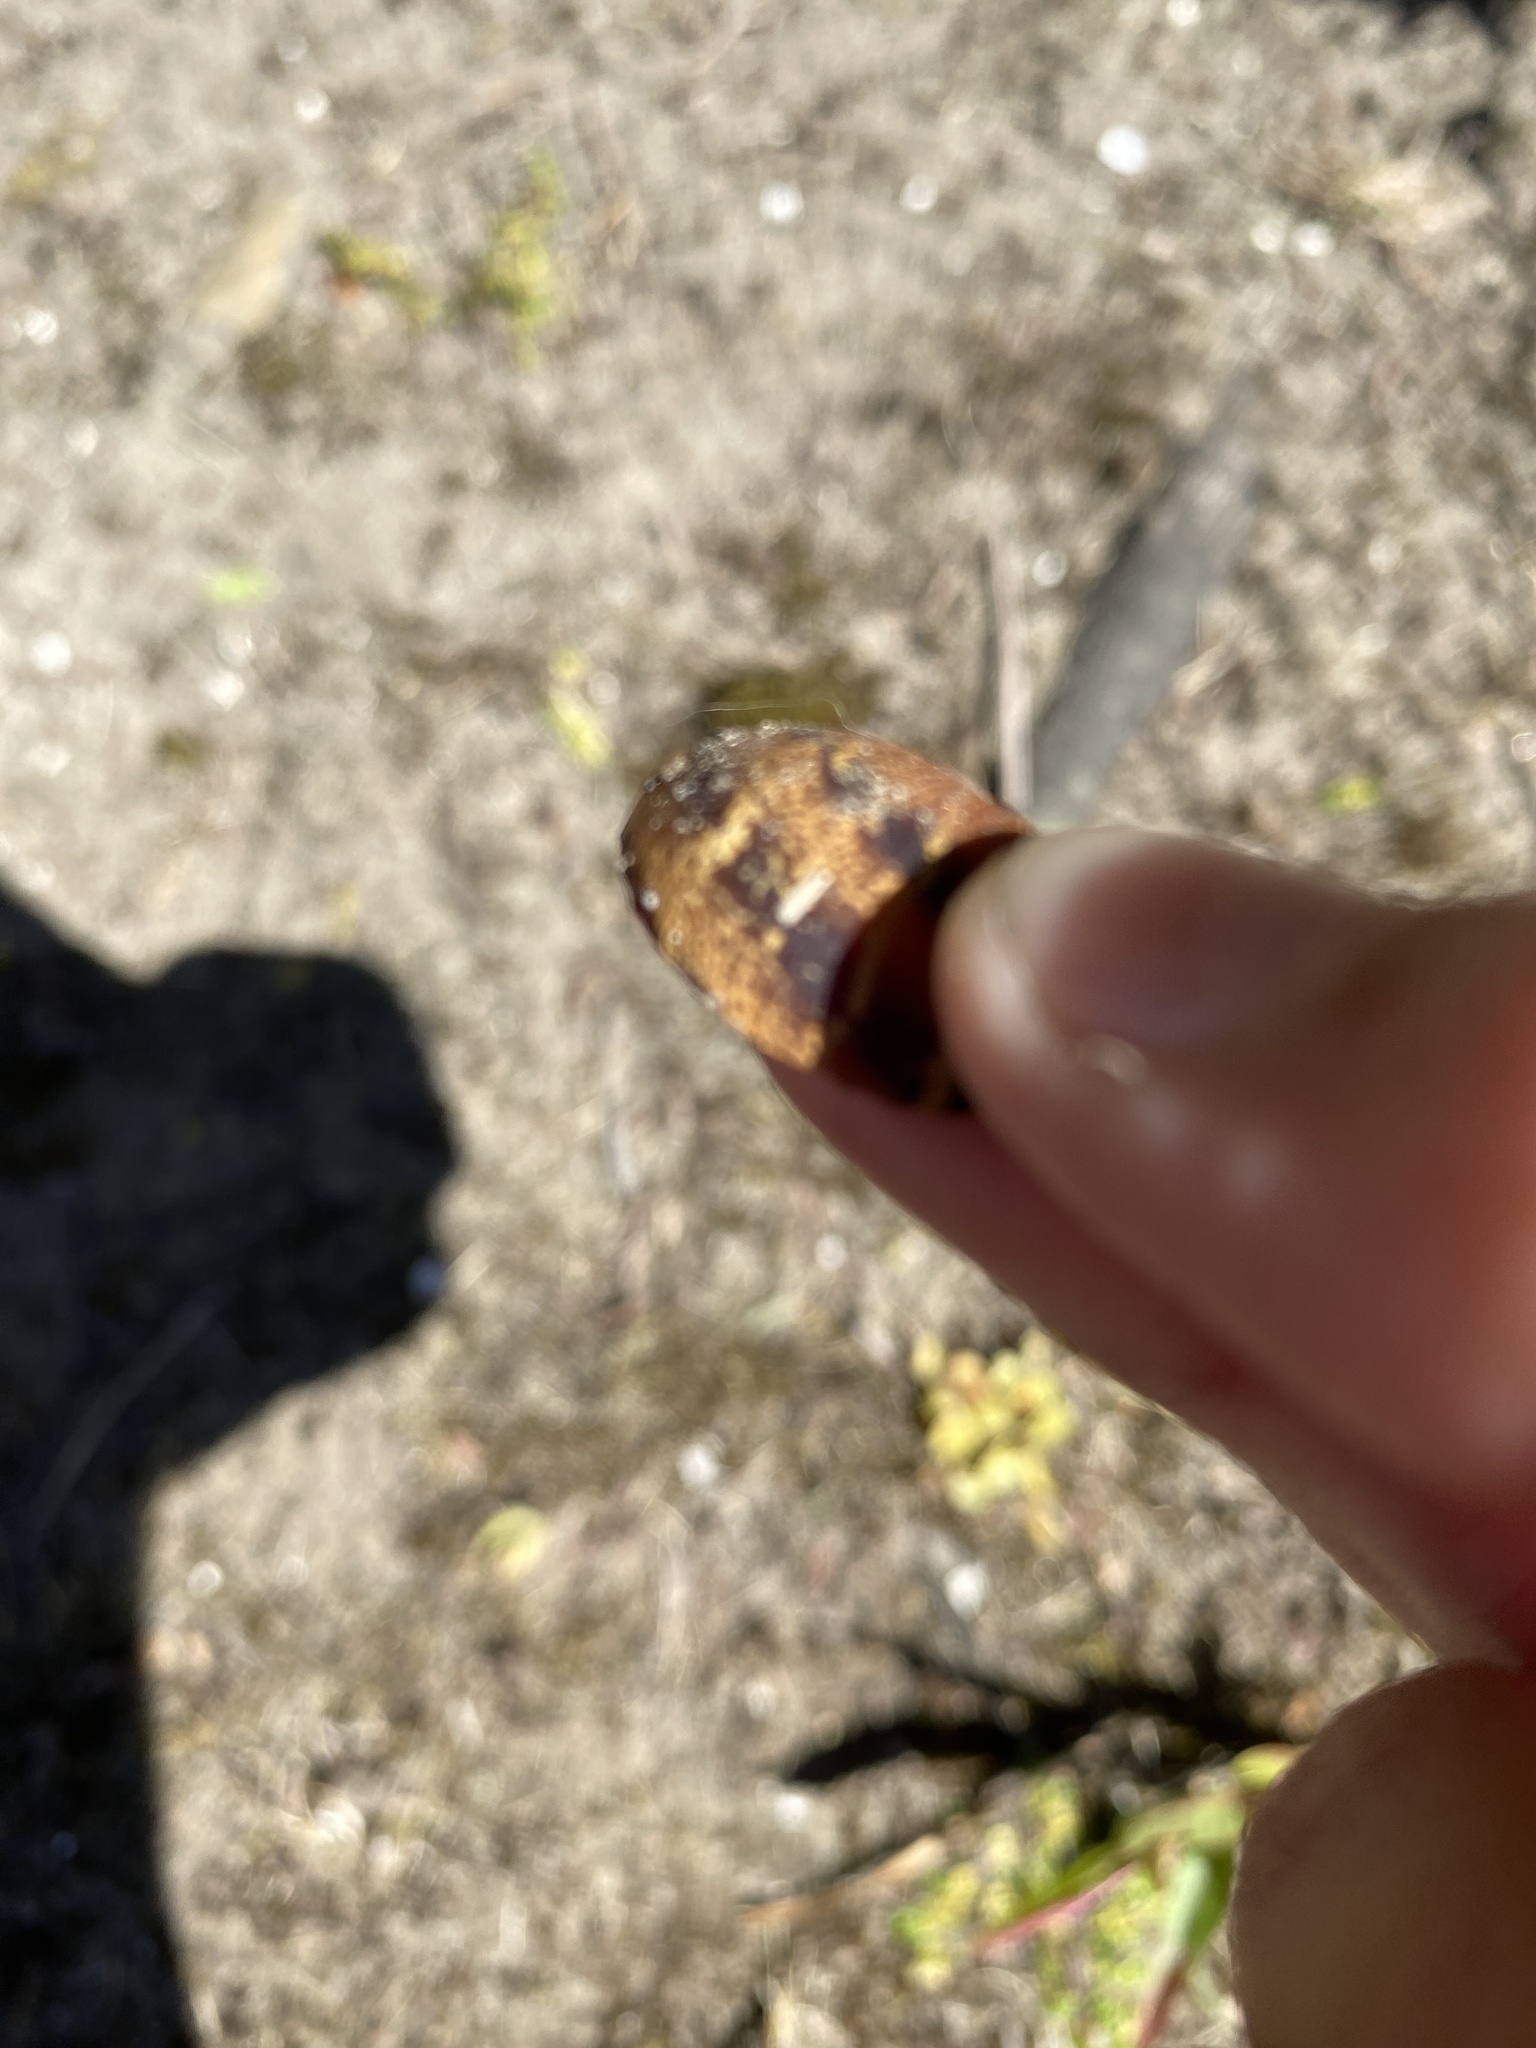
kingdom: Animalia
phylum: Mollusca
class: Gastropoda
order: Stylommatophora
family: Helicidae
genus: Cornu
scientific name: Cornu aspersum
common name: Brown garden snail
